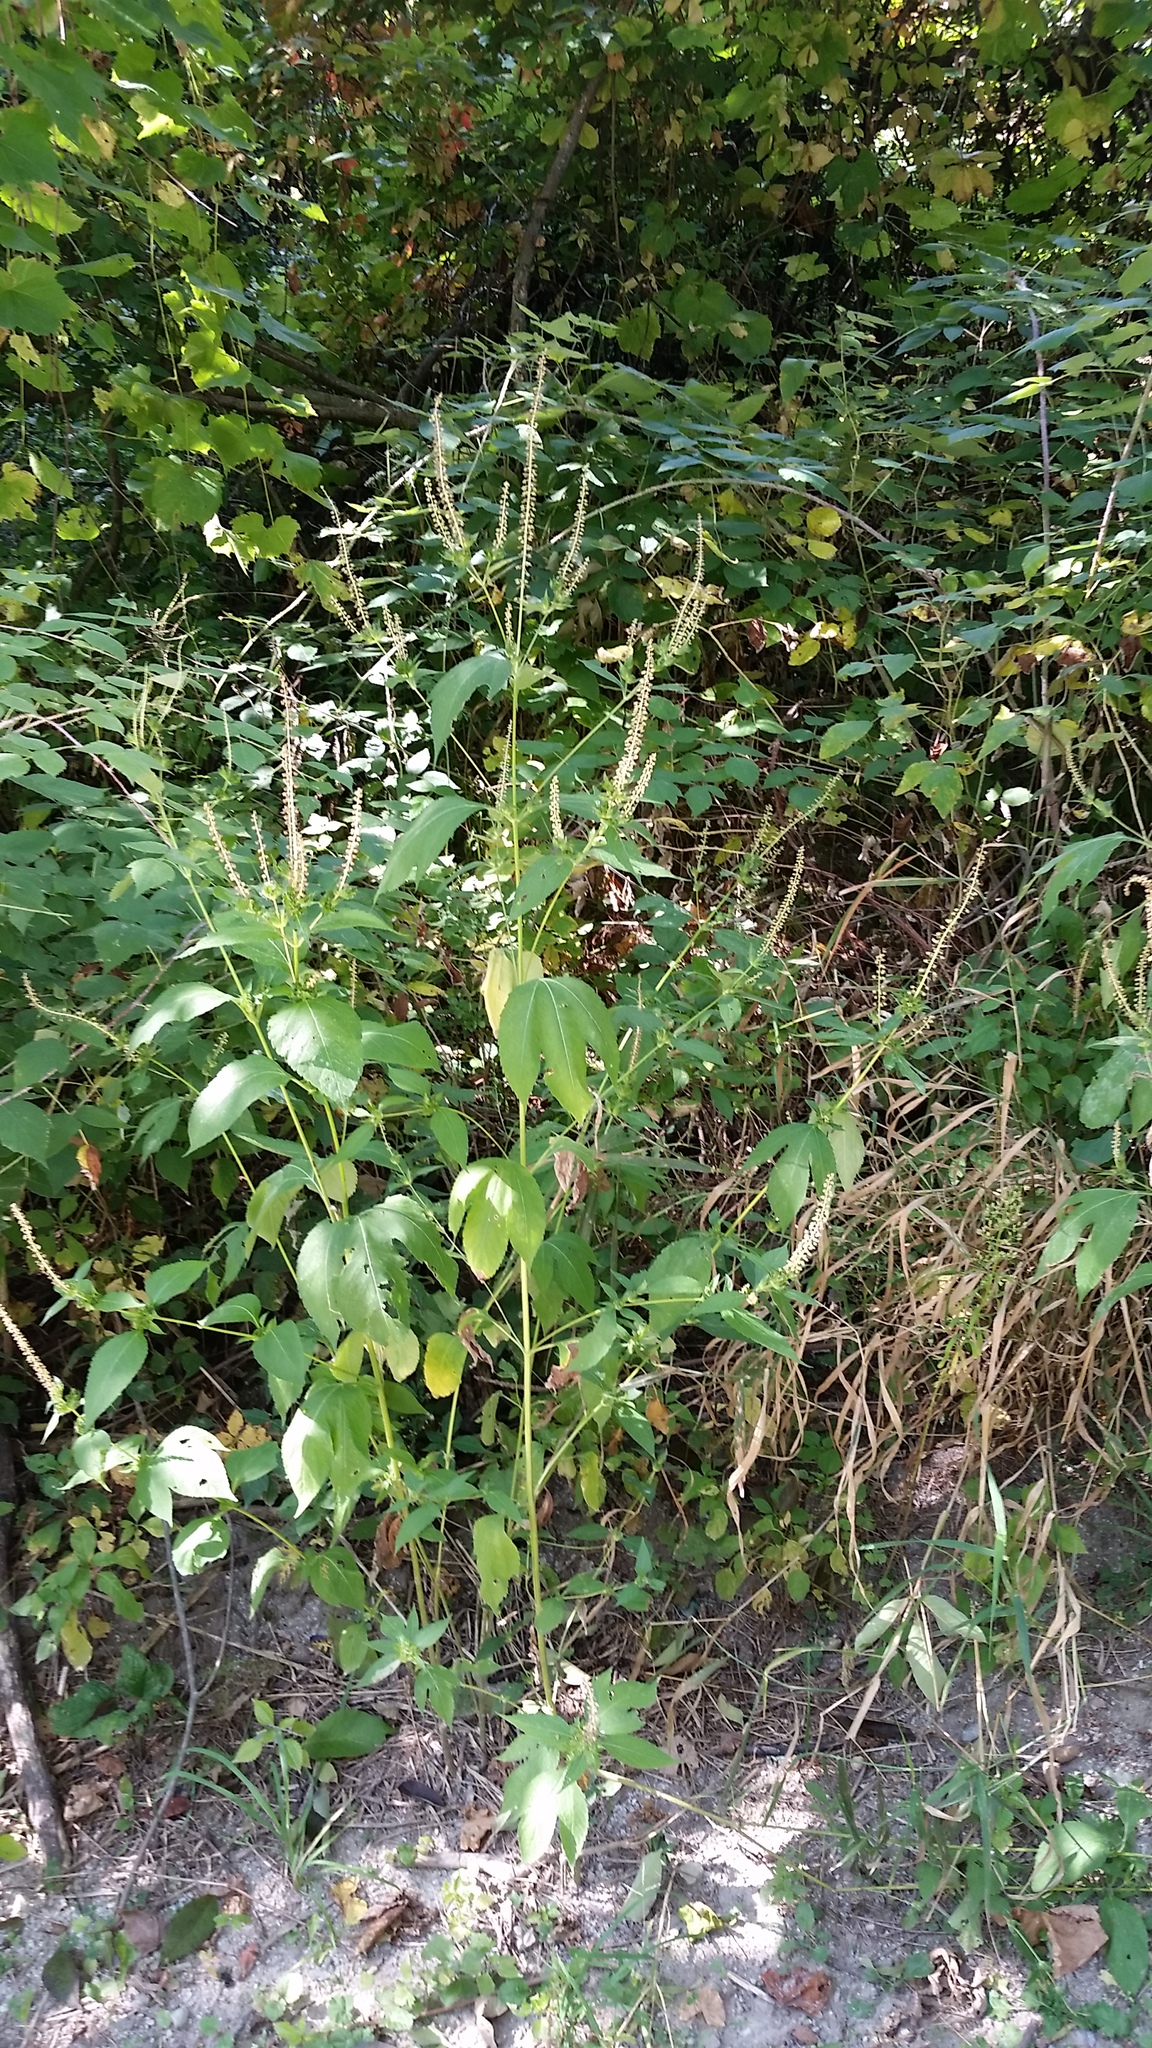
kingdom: Plantae
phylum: Tracheophyta
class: Magnoliopsida
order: Asterales
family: Asteraceae
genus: Ambrosia
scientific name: Ambrosia trifida
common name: Giant ragweed
